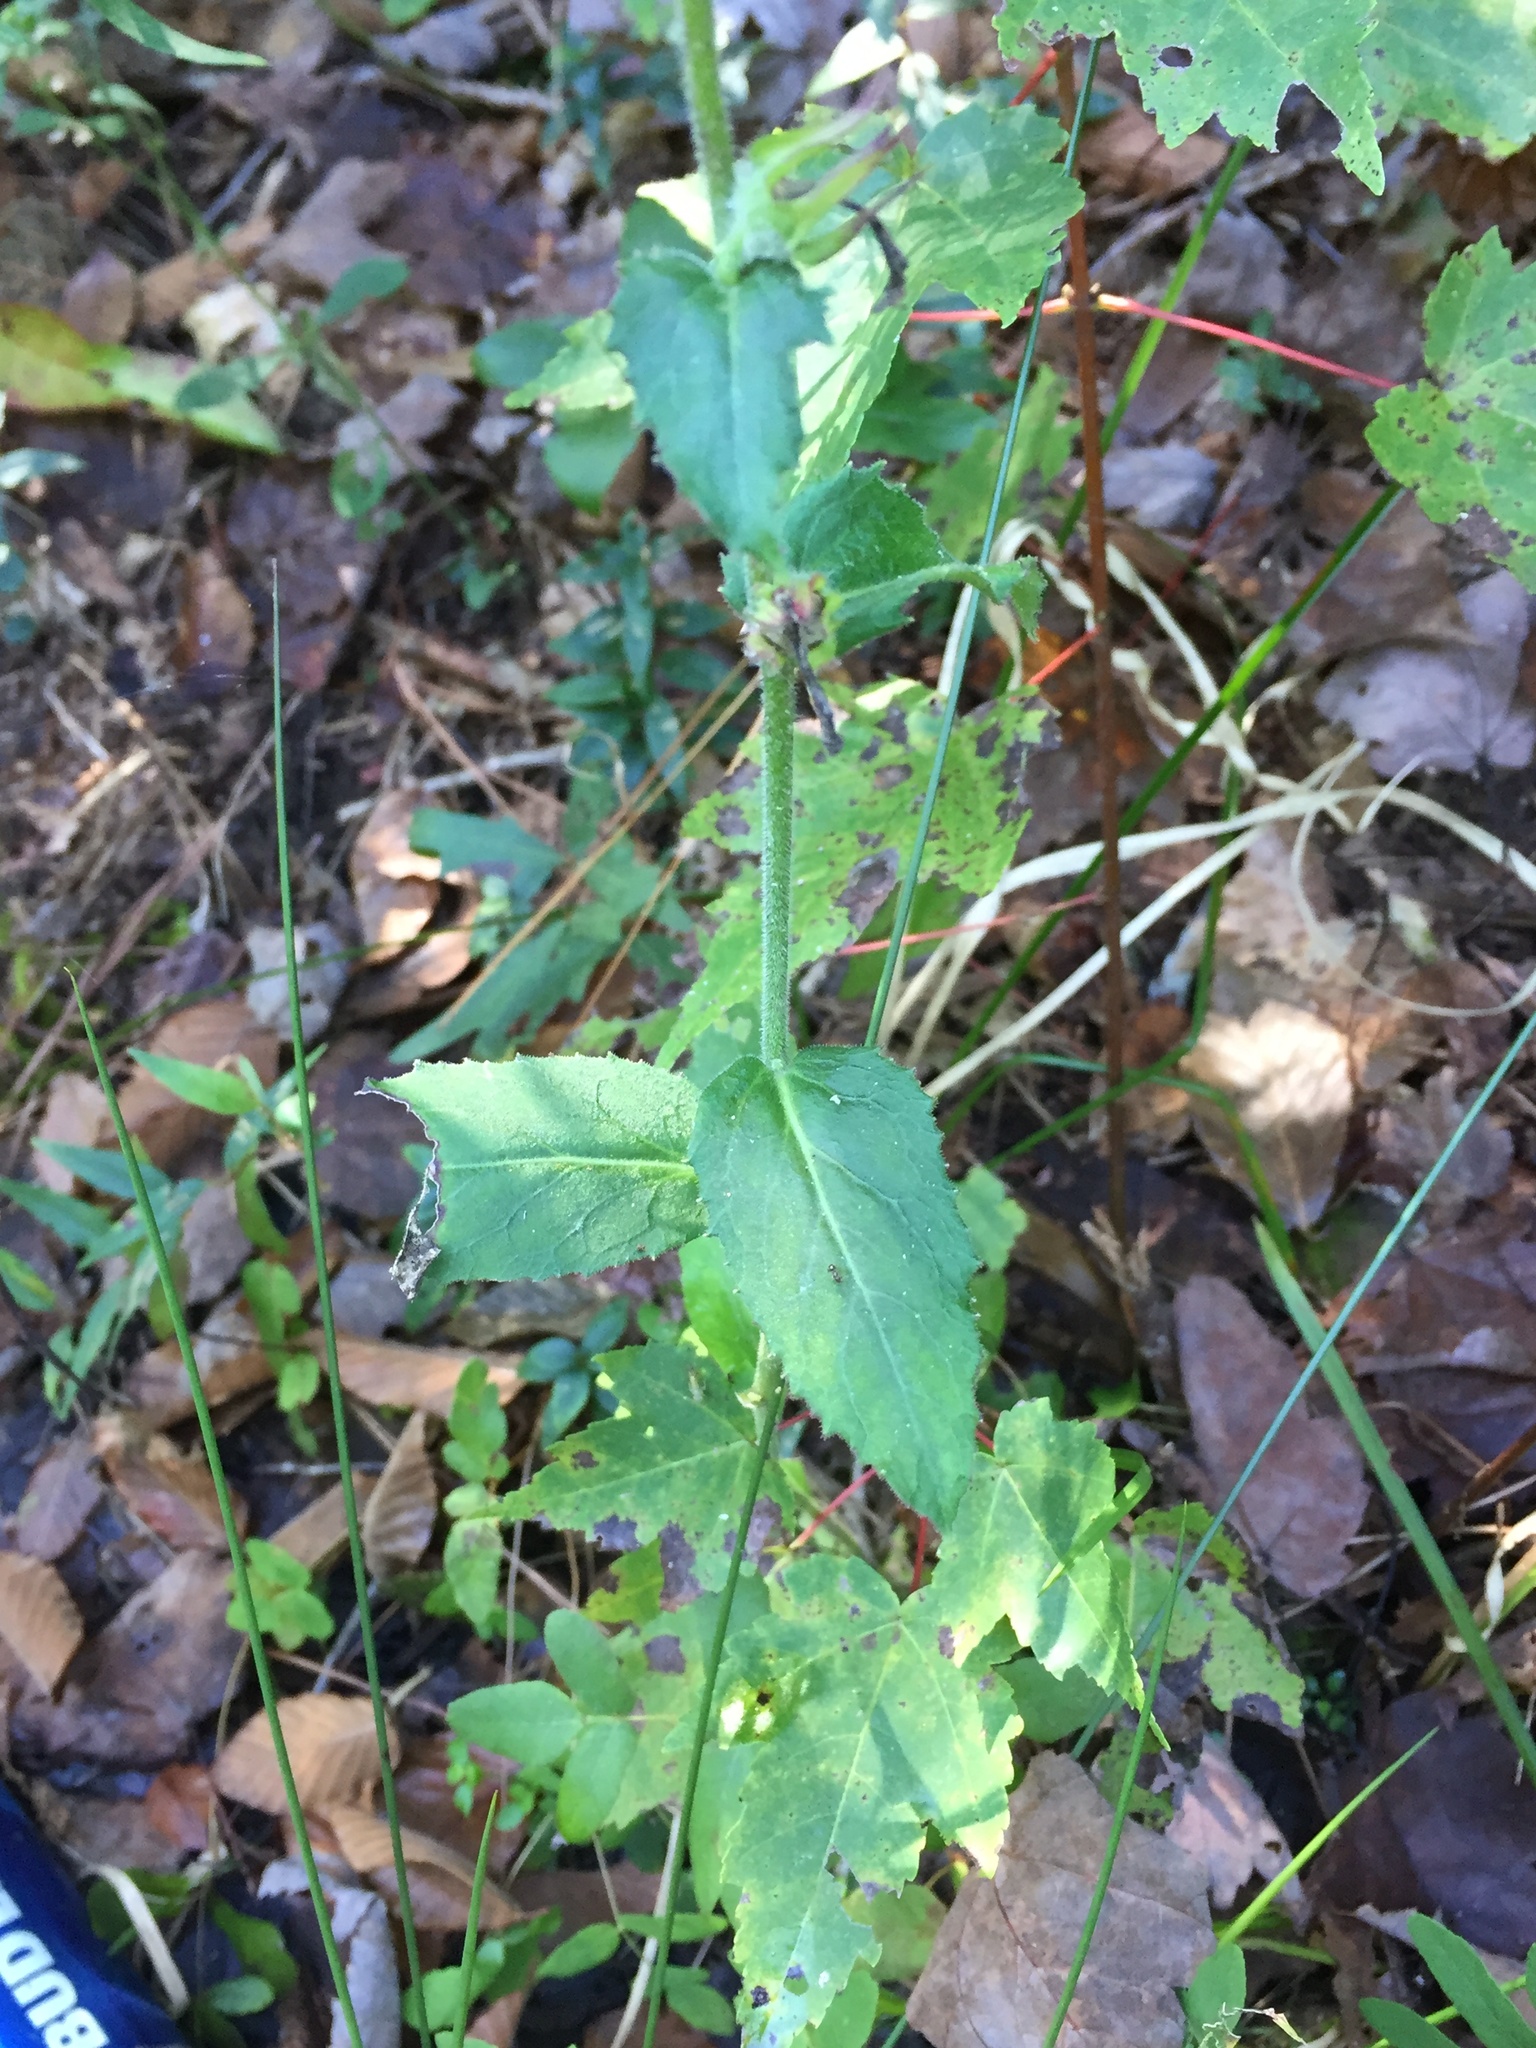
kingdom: Plantae
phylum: Tracheophyta
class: Magnoliopsida
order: Asterales
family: Campanulaceae
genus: Lobelia
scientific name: Lobelia puberula
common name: Purple dewdrop
